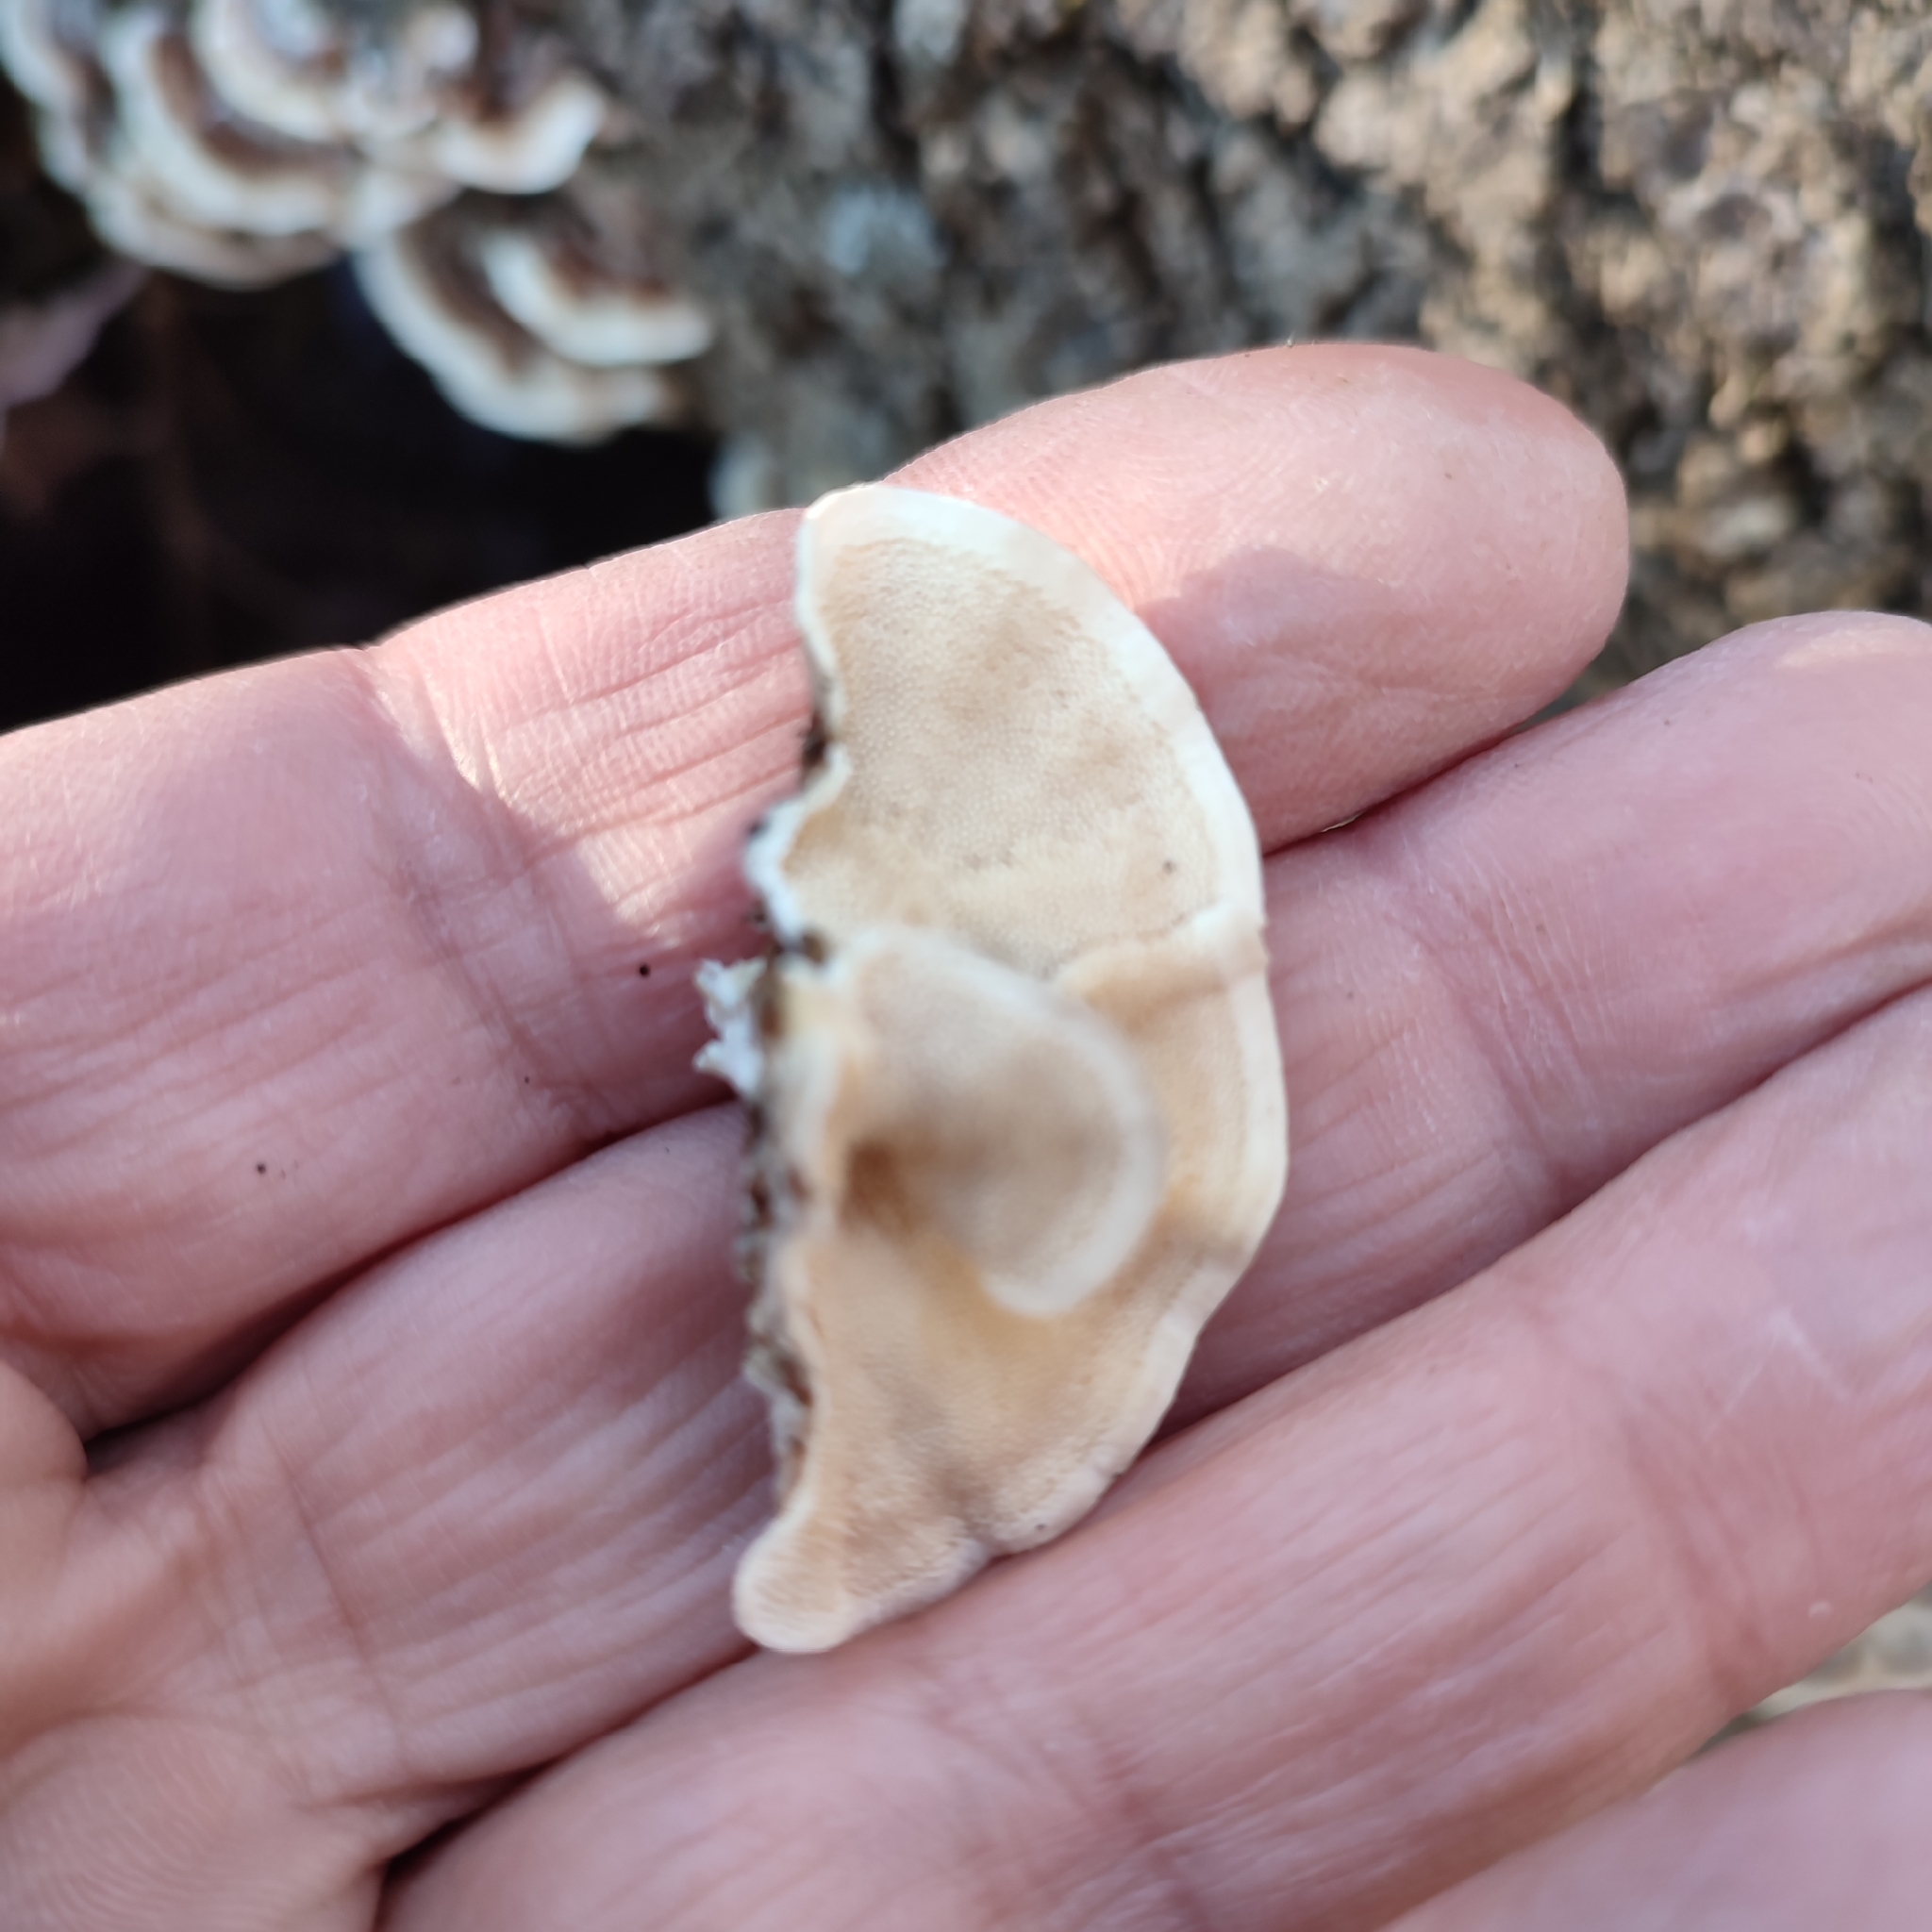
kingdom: Fungi
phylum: Basidiomycota
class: Agaricomycetes
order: Polyporales
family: Polyporaceae
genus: Trametes
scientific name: Trametes
